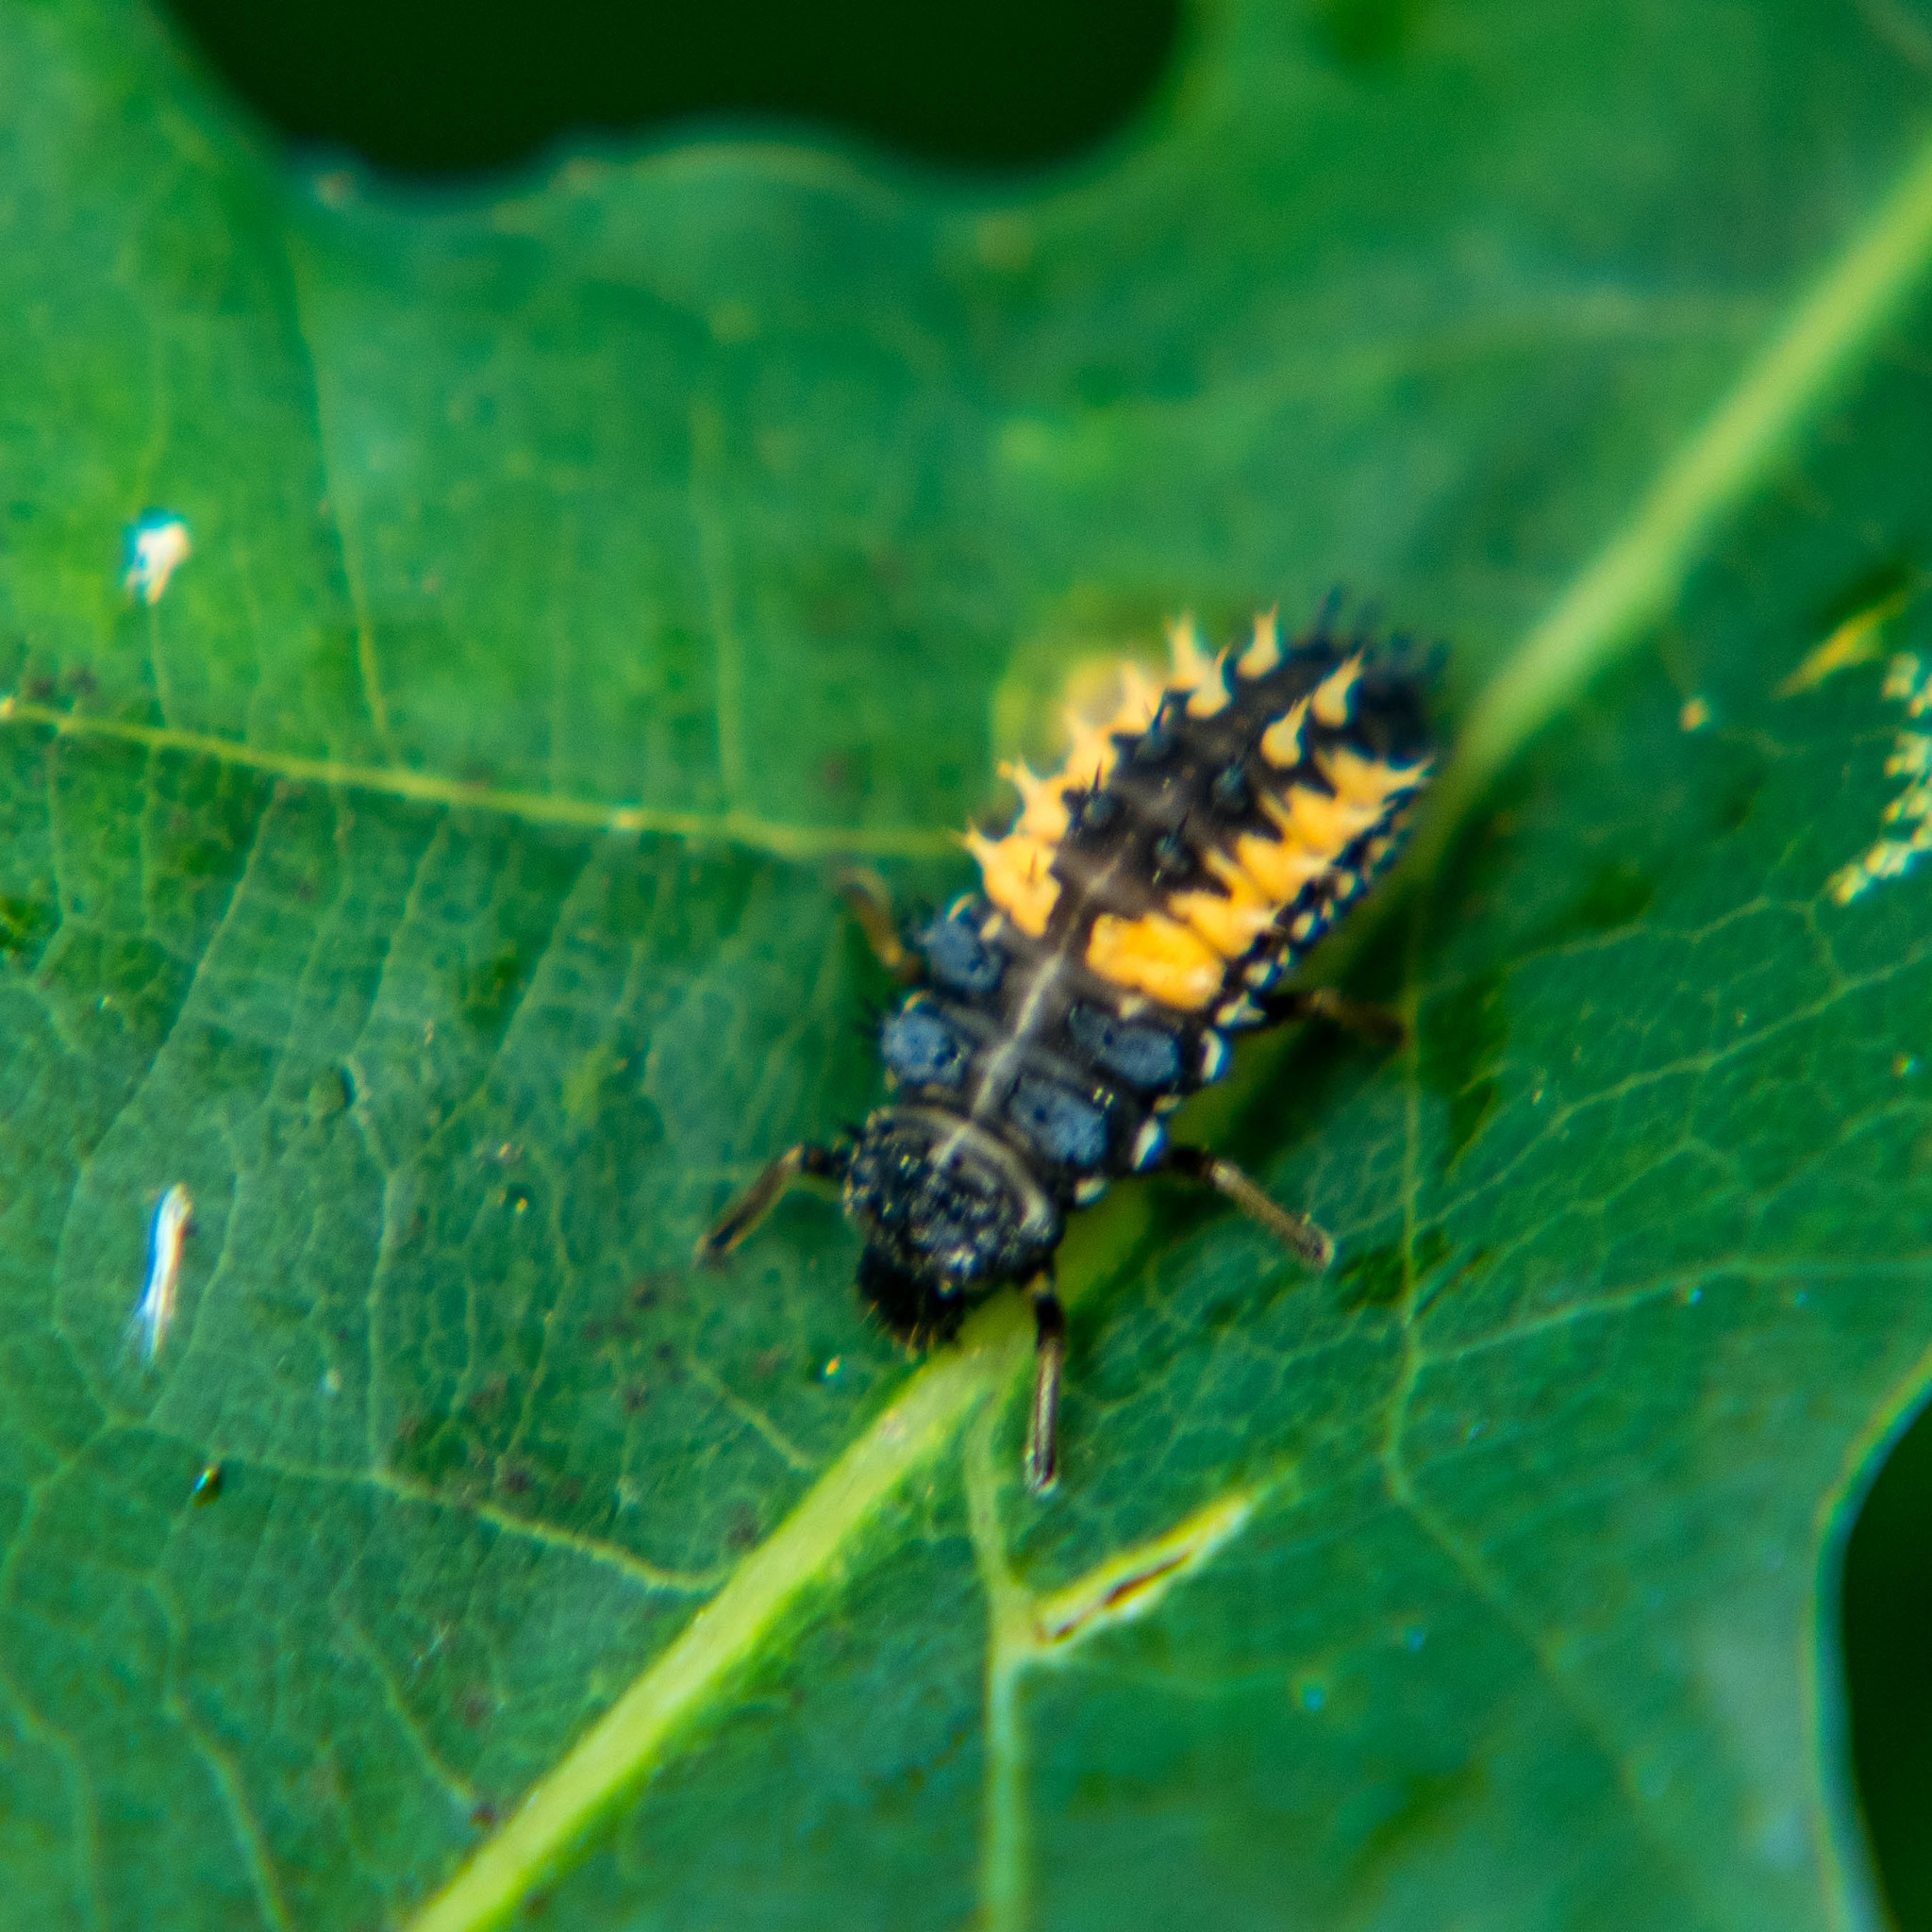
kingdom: Animalia
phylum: Arthropoda
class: Insecta
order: Coleoptera
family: Coccinellidae
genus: Harmonia
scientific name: Harmonia axyridis
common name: Harlequin ladybird
